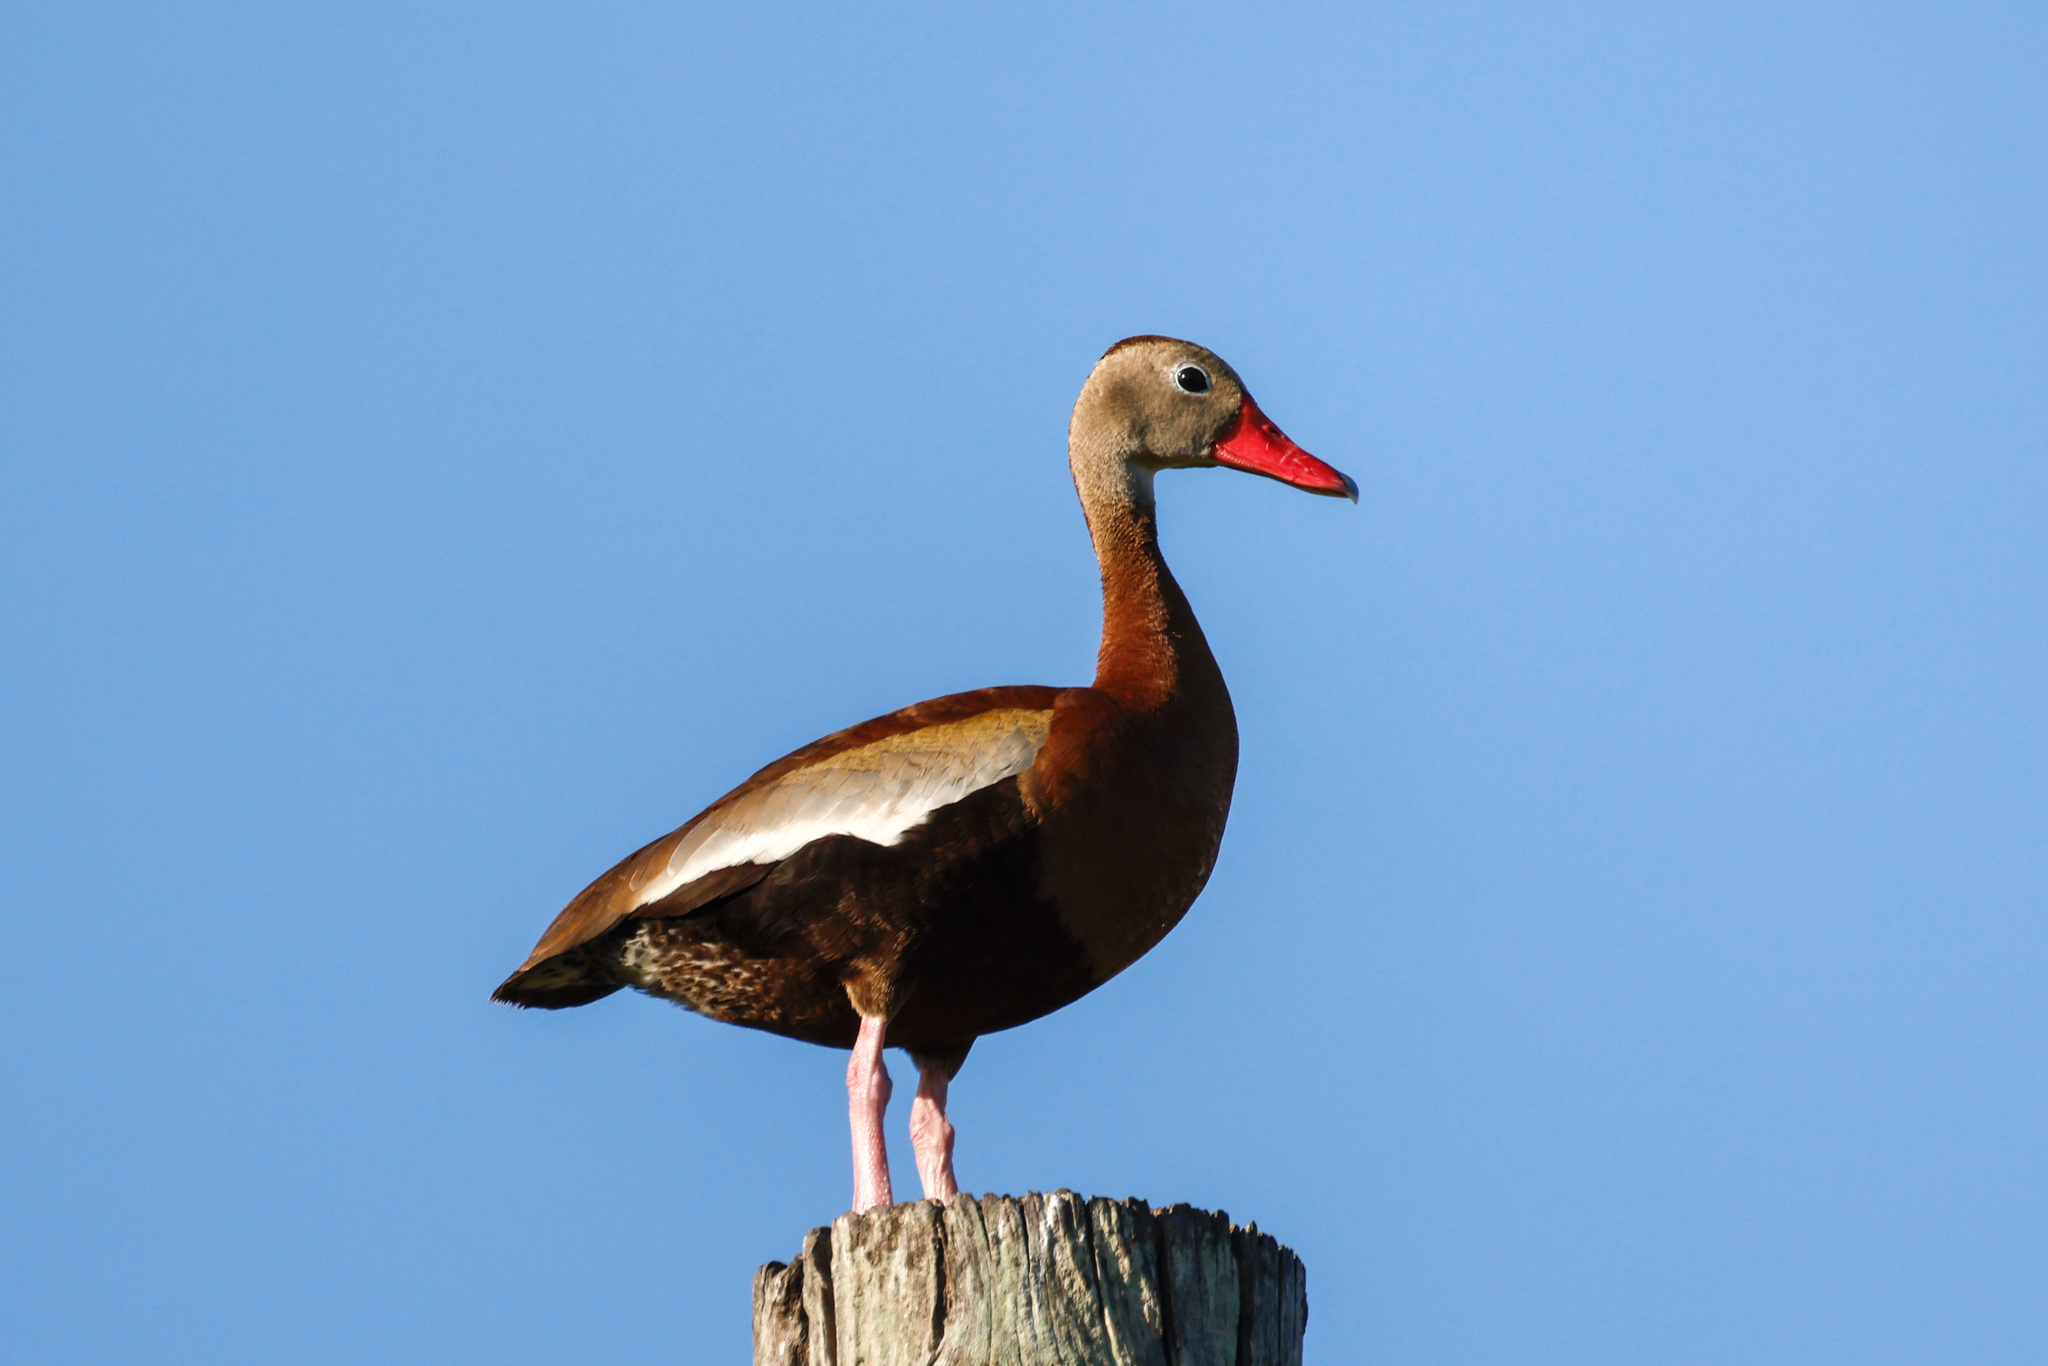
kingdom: Animalia
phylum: Chordata
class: Aves
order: Anseriformes
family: Anatidae
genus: Dendrocygna
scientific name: Dendrocygna autumnalis
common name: Black-bellied whistling duck
